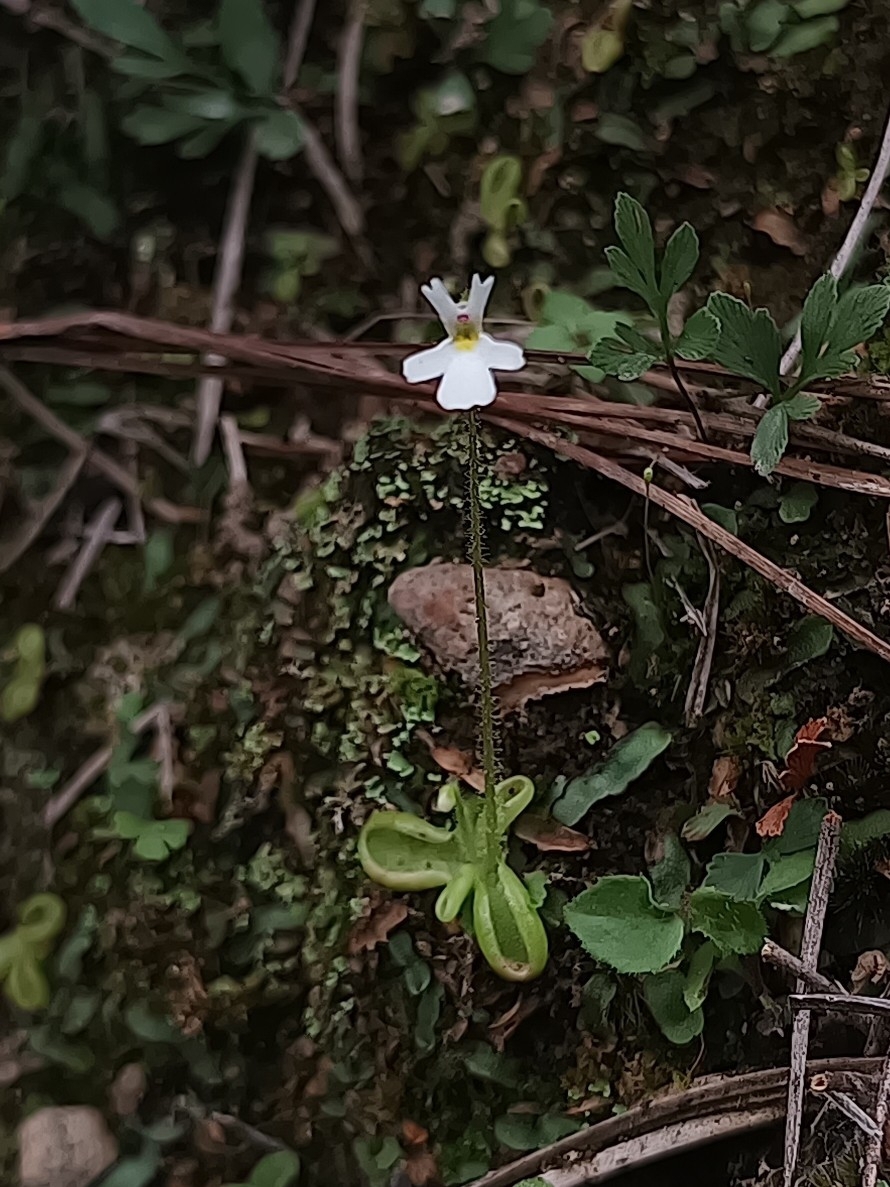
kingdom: Plantae
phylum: Tracheophyta
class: Magnoliopsida
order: Lamiales
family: Lentibulariaceae
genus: Pinguicula
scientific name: Pinguicula crenatiloba
